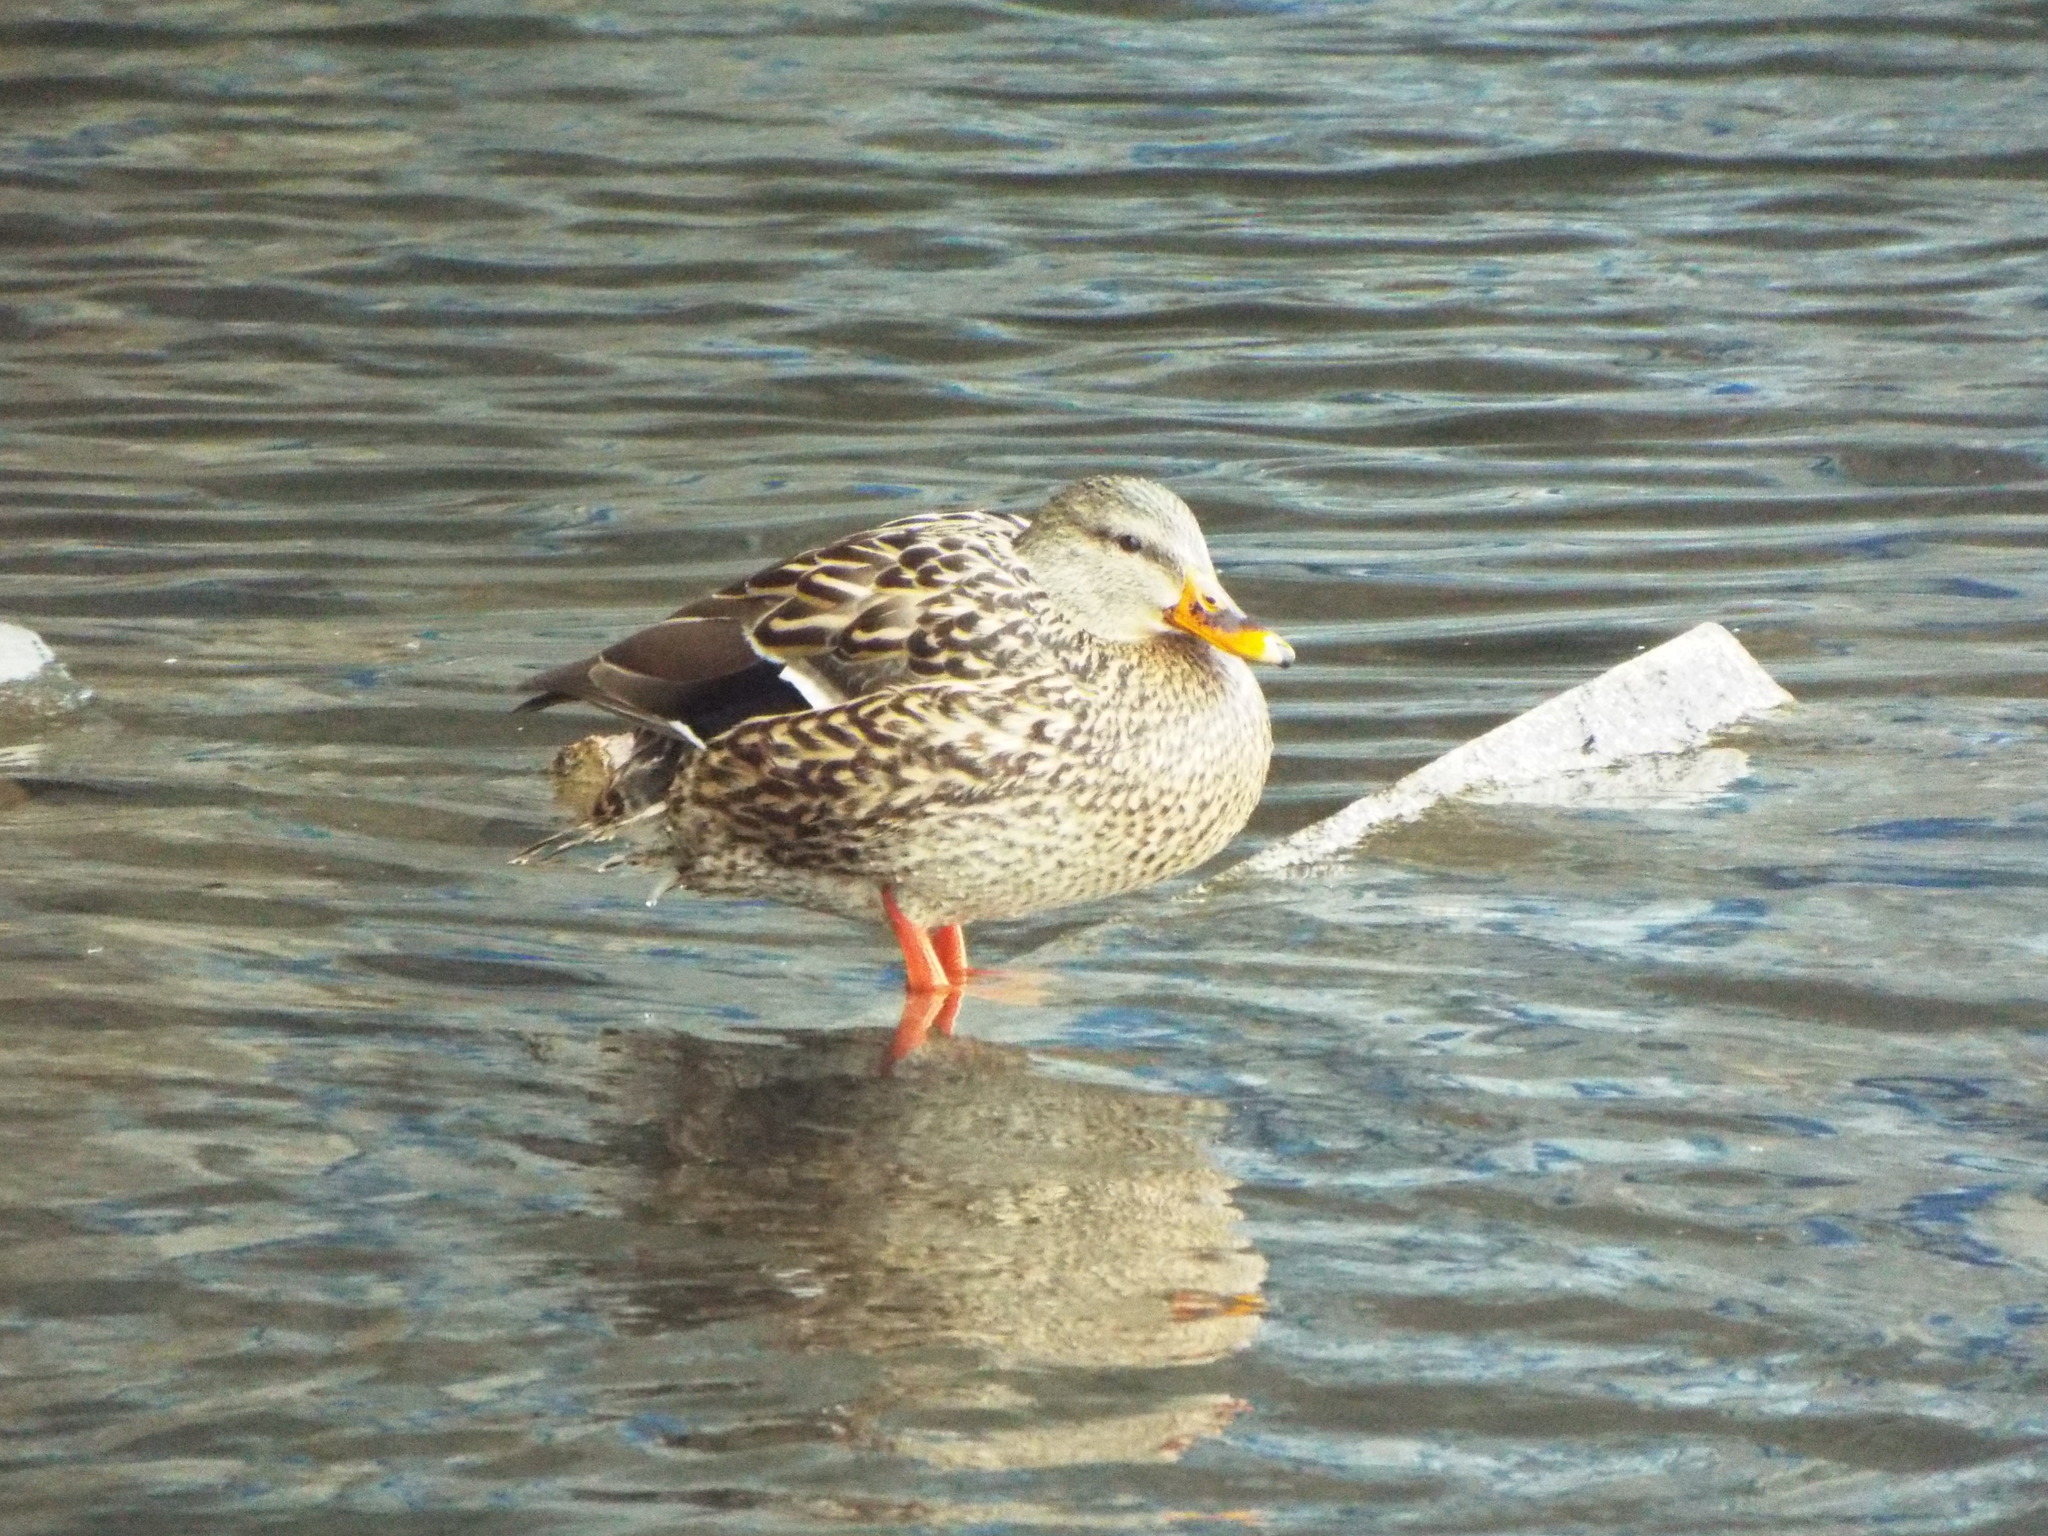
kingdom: Animalia
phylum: Chordata
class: Aves
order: Anseriformes
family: Anatidae
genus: Anas
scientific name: Anas platyrhynchos
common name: Mallard
